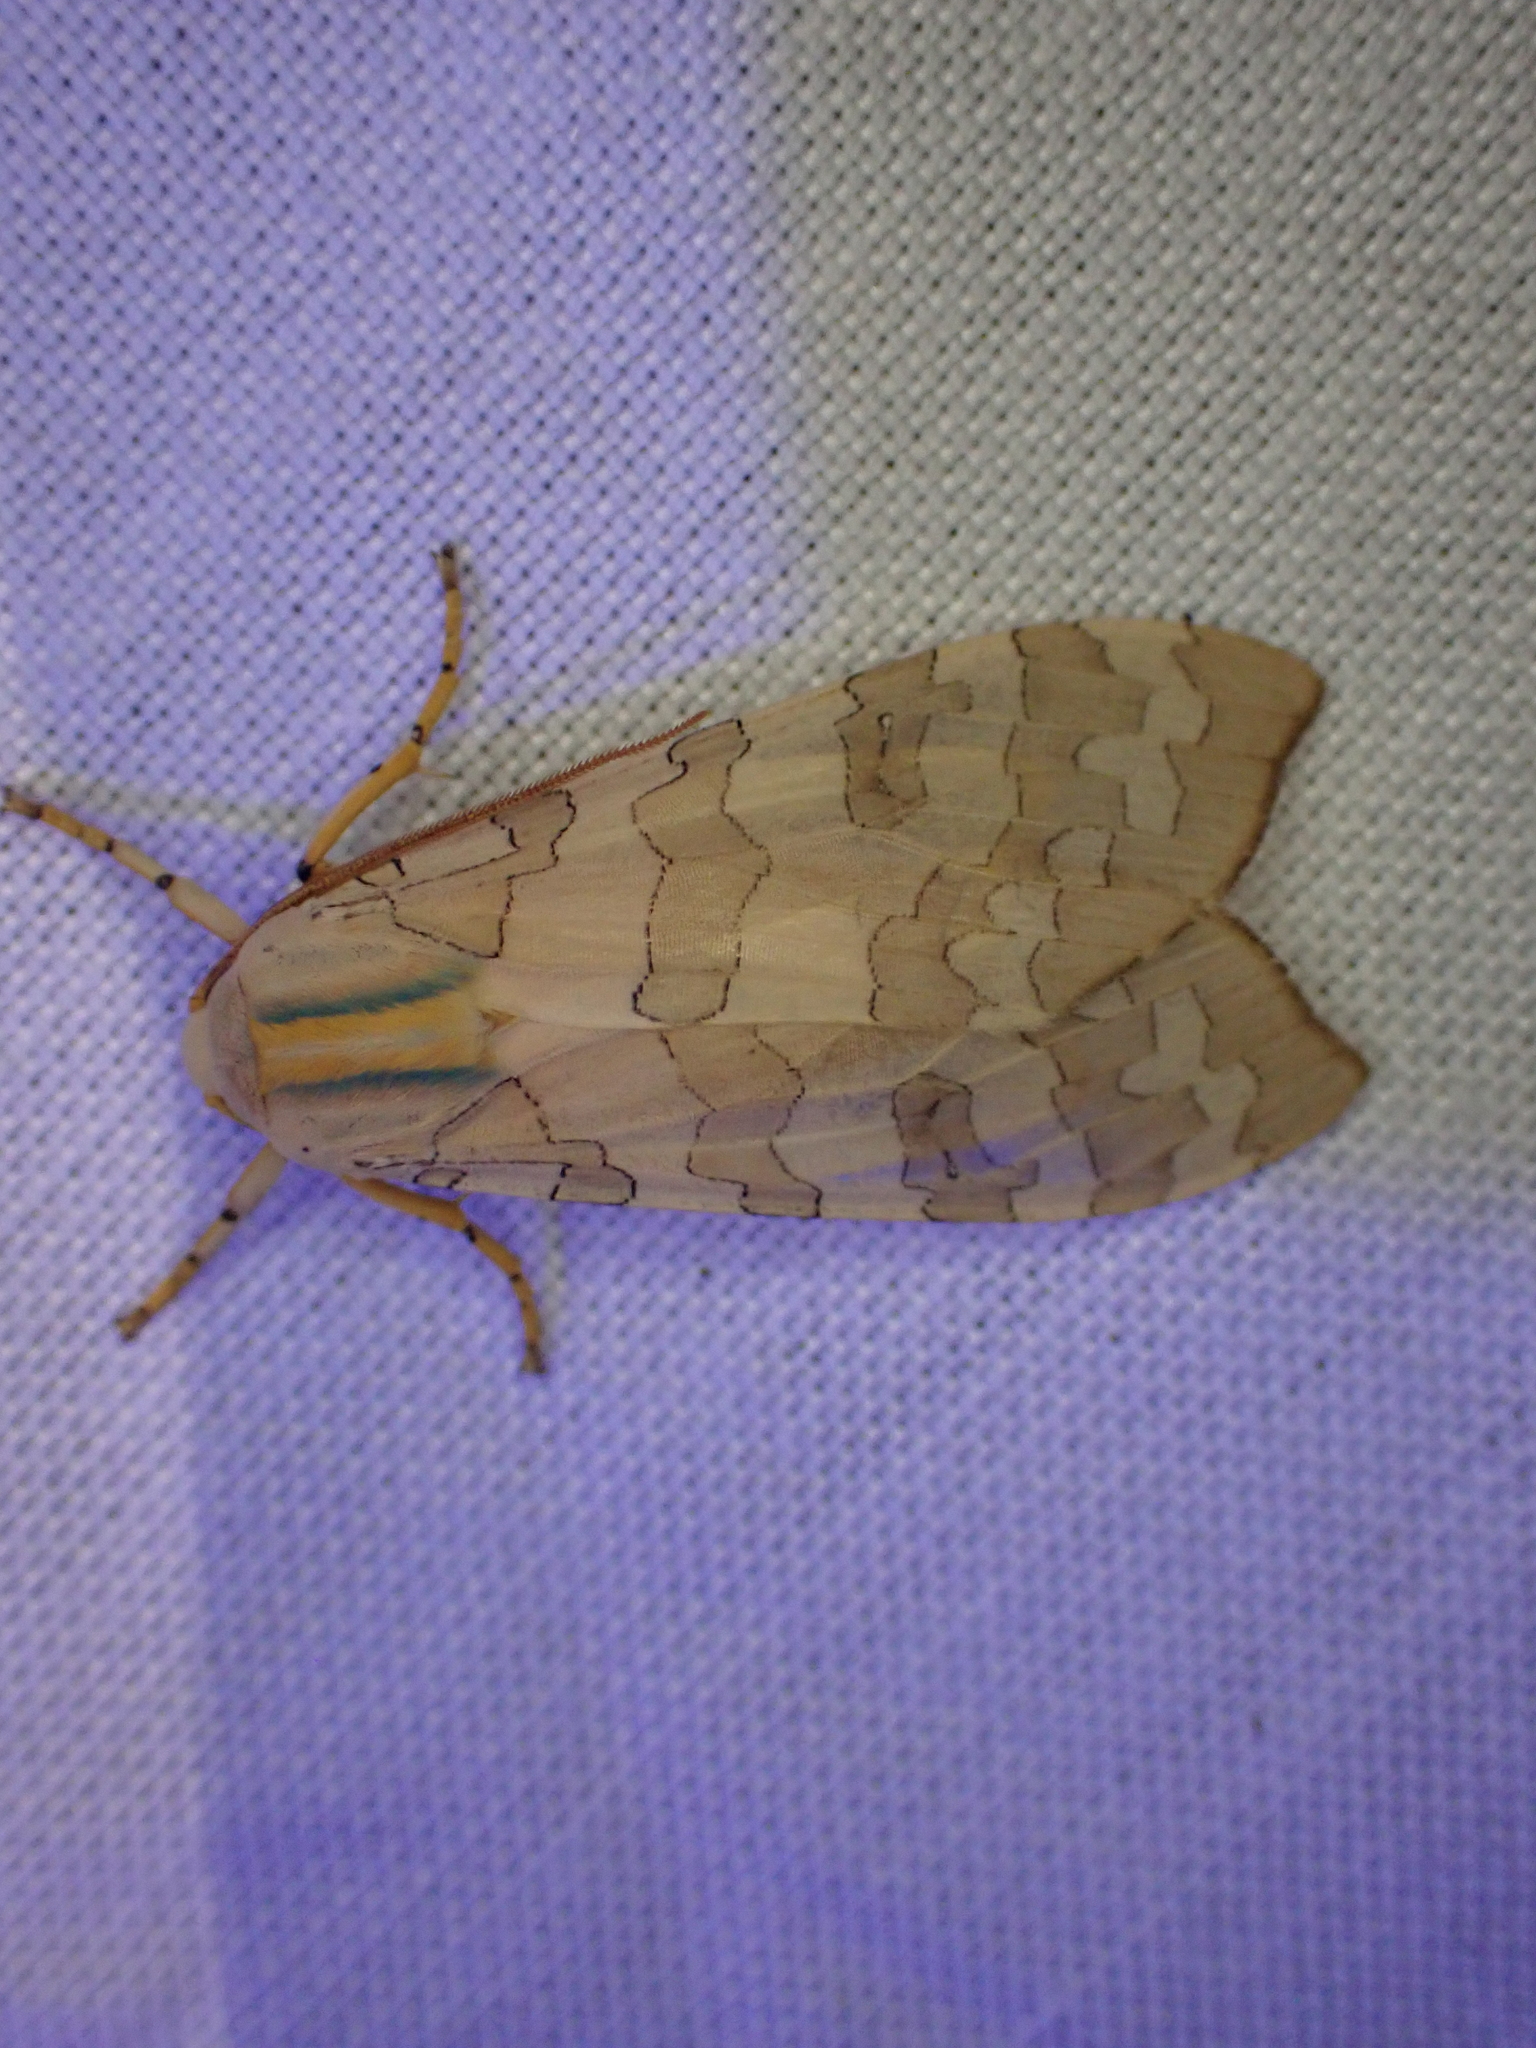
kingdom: Animalia
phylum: Arthropoda
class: Insecta
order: Lepidoptera
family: Erebidae
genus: Halysidota
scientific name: Halysidota
